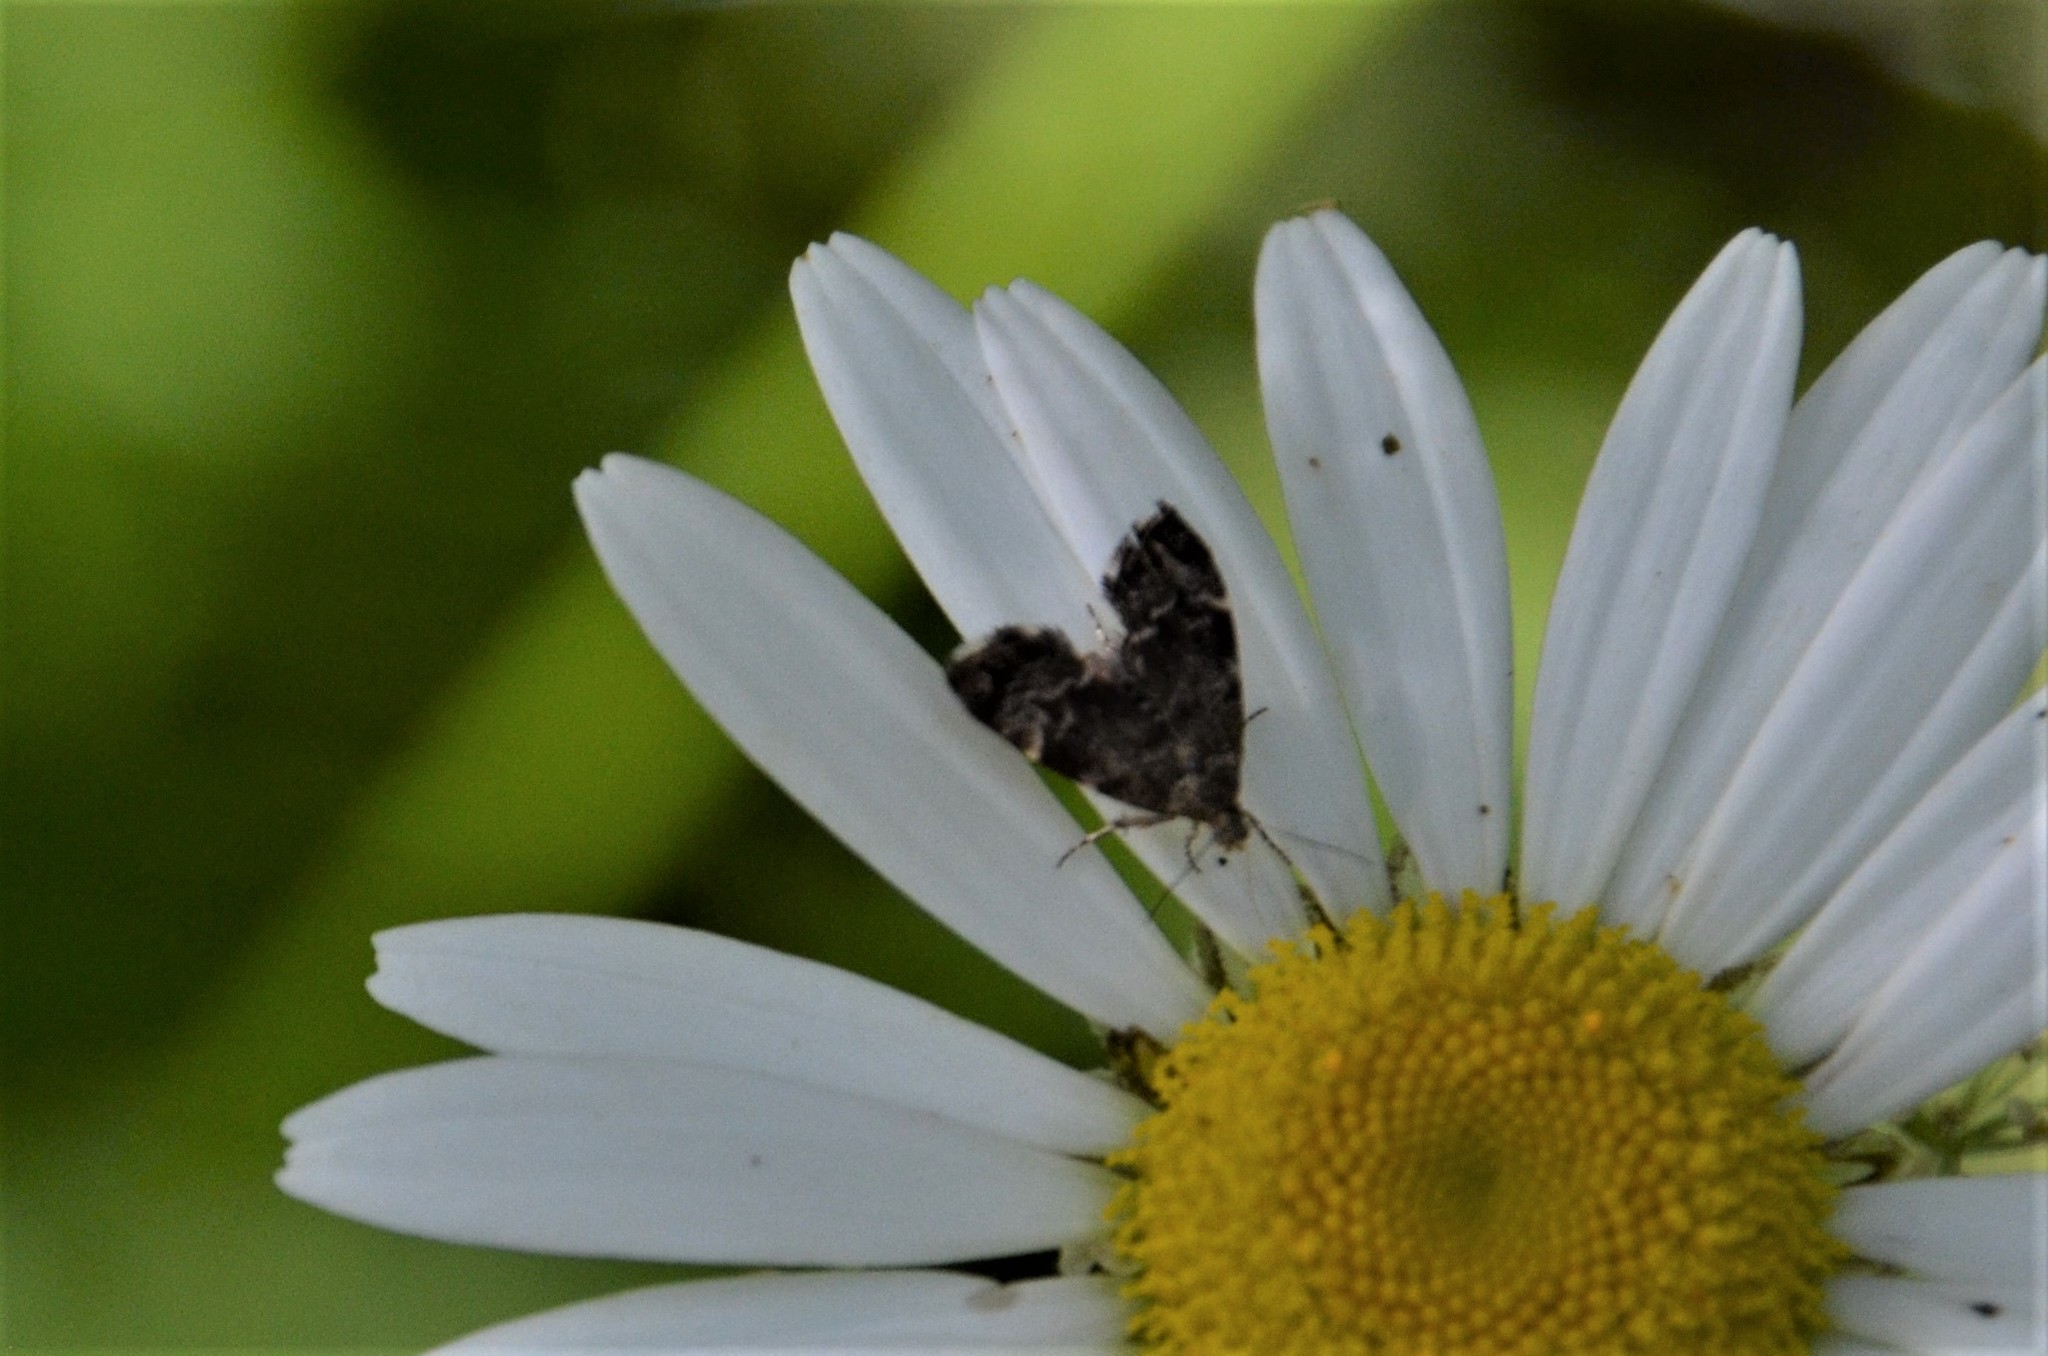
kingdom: Animalia
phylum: Arthropoda
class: Insecta
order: Lepidoptera
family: Choreutidae
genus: Anthophila
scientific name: Anthophila fabriciana
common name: Nettle-tap
